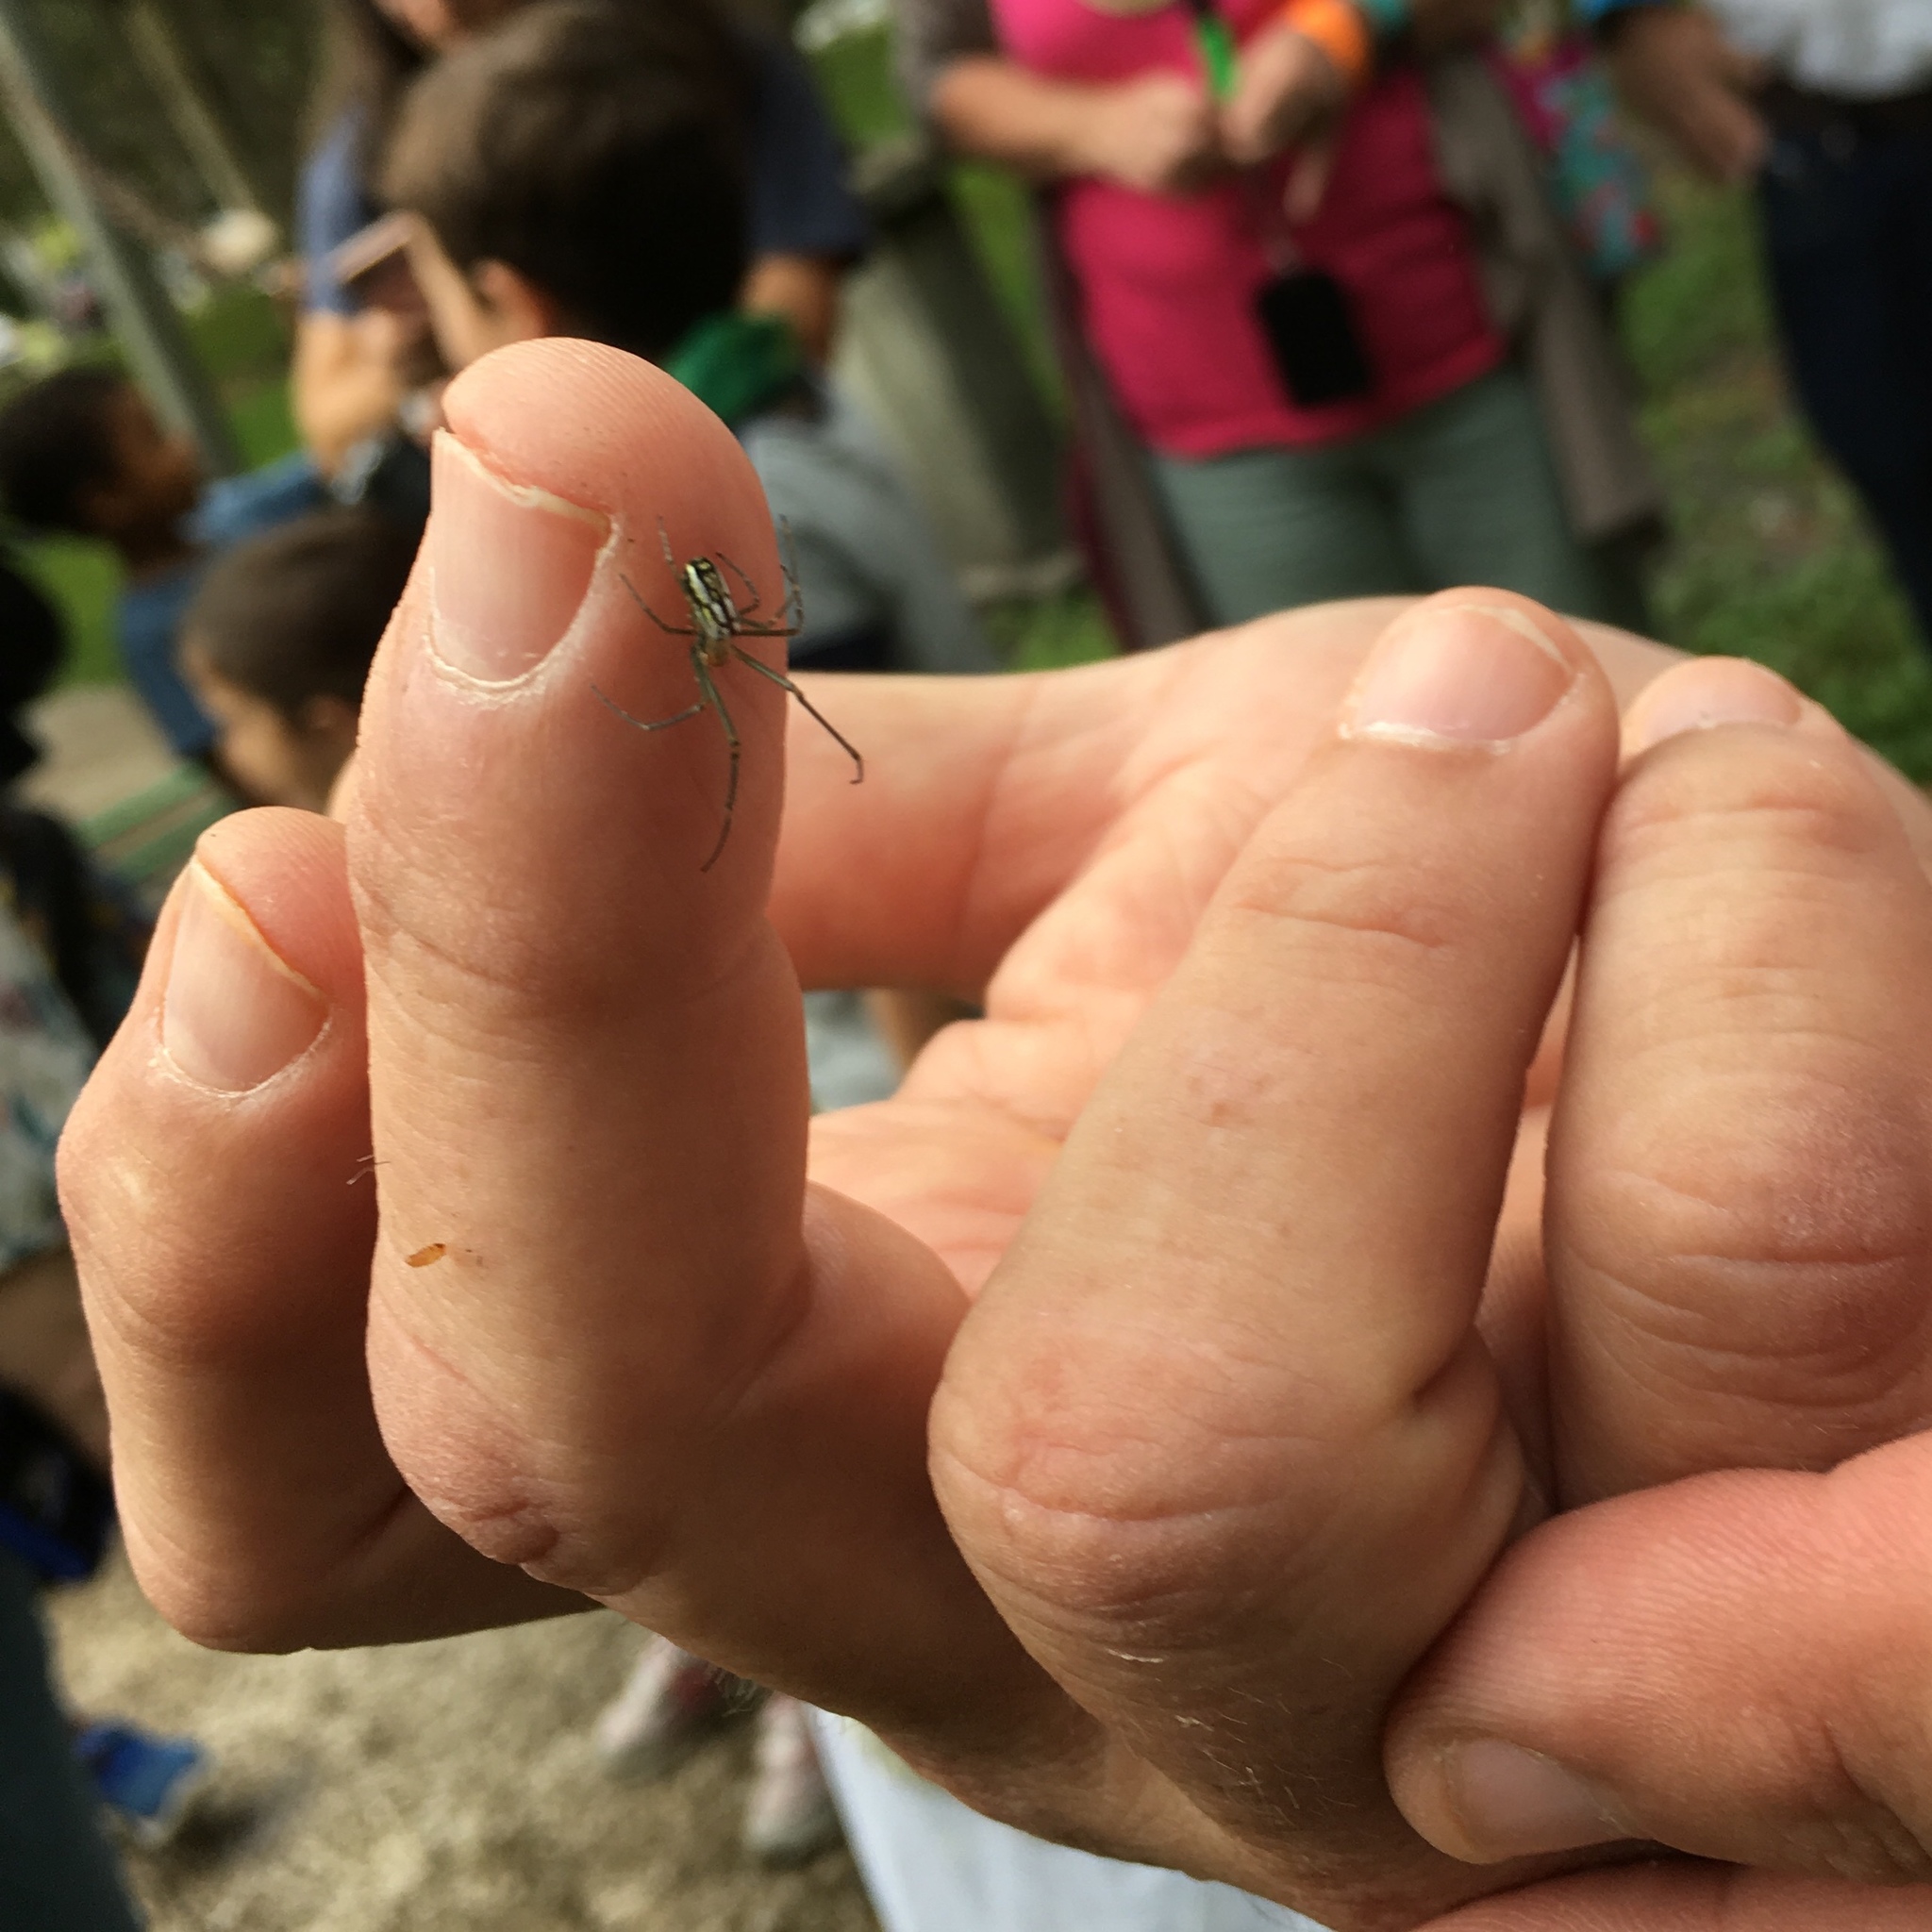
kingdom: Animalia
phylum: Arthropoda
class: Arachnida
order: Araneae
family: Tetragnathidae
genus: Leucauge
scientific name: Leucauge argyra
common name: Longjawed orb weavers
